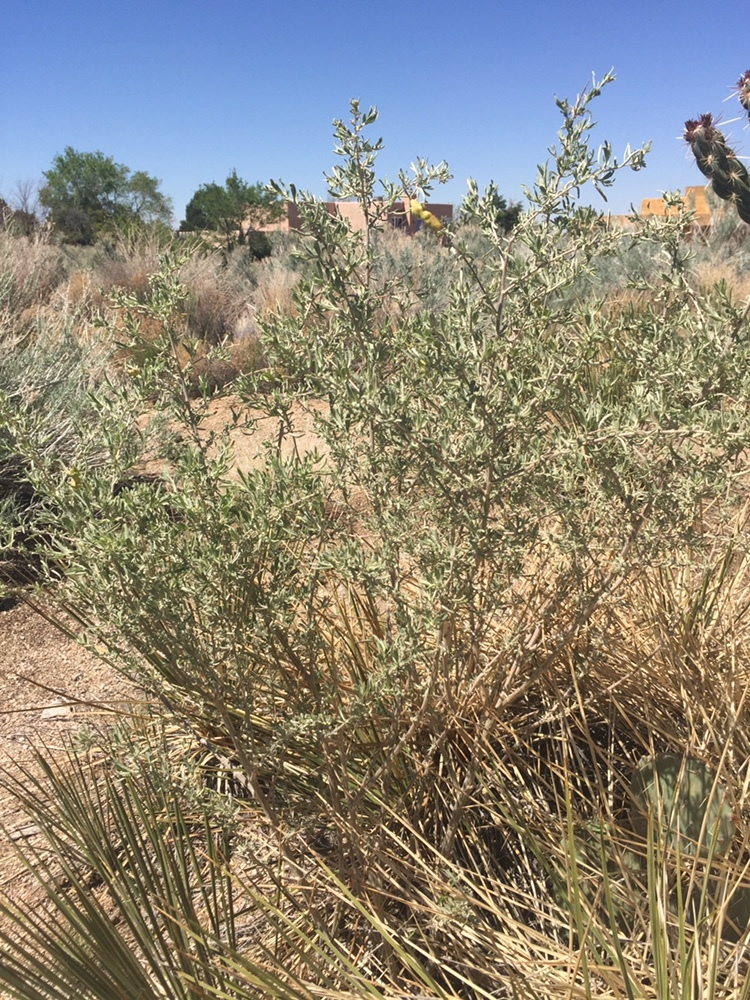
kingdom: Plantae
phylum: Tracheophyta
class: Magnoliopsida
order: Caryophyllales
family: Amaranthaceae
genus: Atriplex
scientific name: Atriplex canescens
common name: Four-wing saltbush
